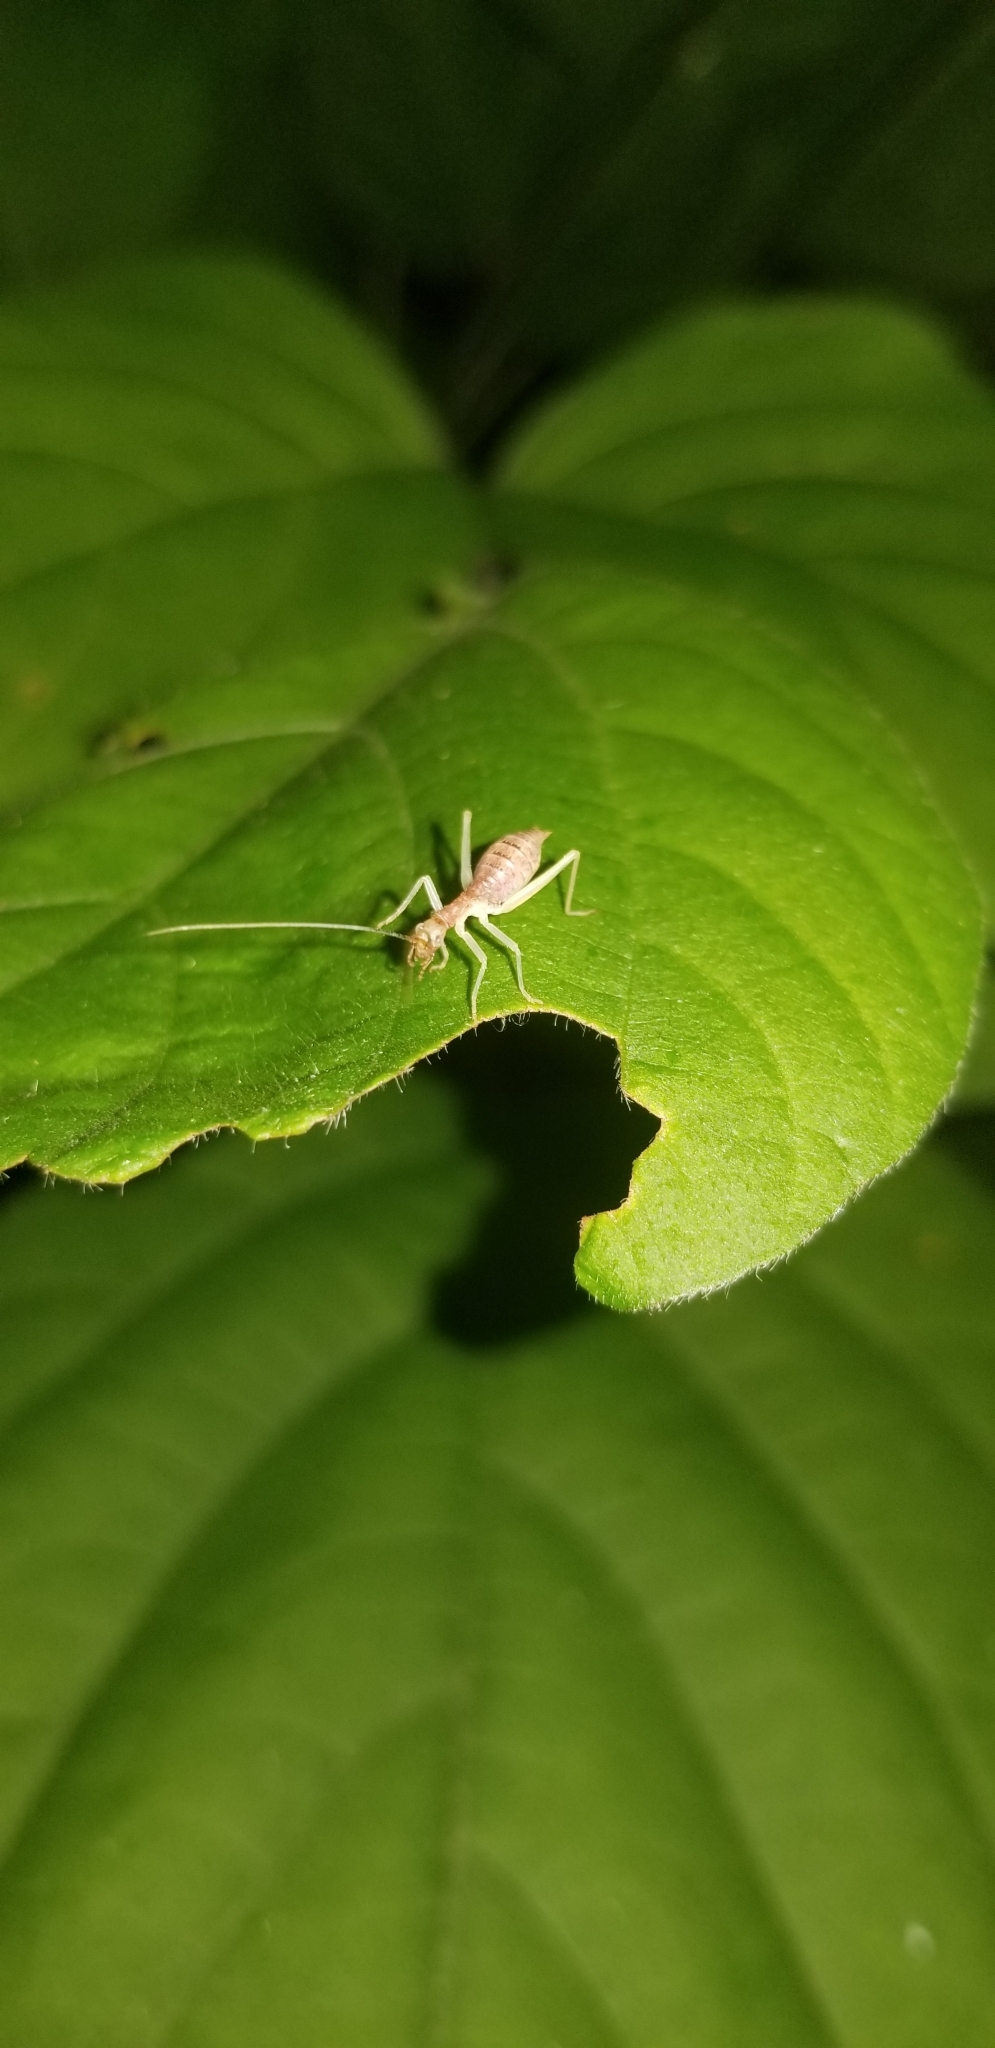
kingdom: Animalia
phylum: Arthropoda
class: Insecta
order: Orthoptera
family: Gryllidae
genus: Neoxabea
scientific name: Neoxabea bipunctata
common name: Two-spotted tree cricket
